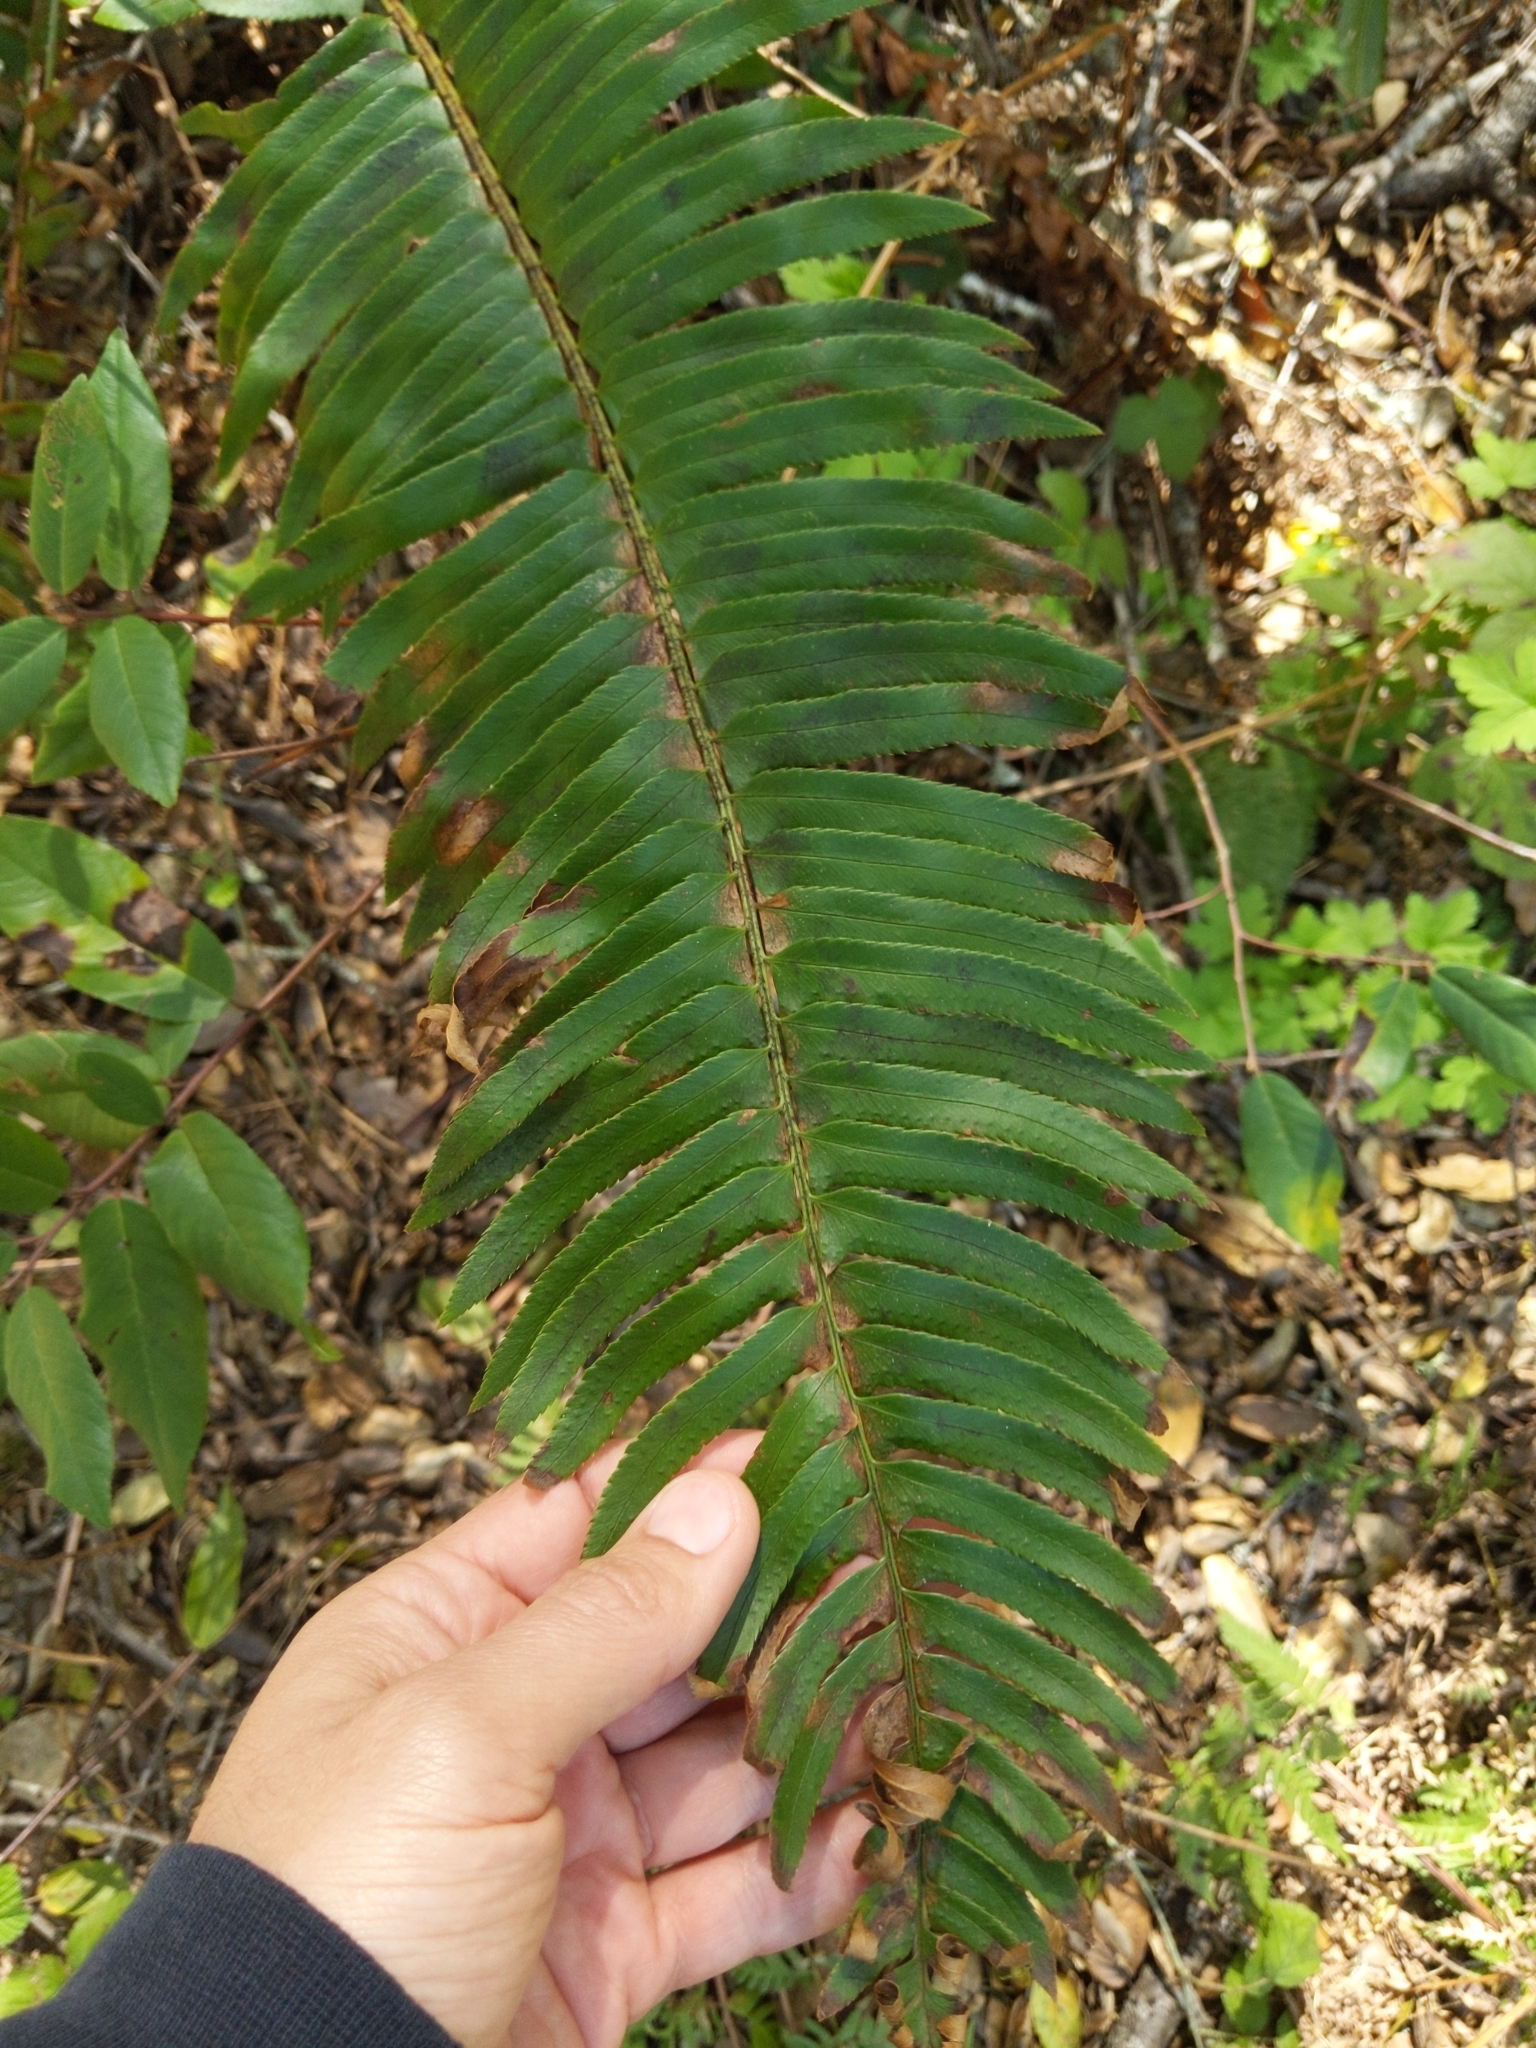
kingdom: Plantae
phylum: Tracheophyta
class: Polypodiopsida
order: Polypodiales
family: Dryopteridaceae
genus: Polystichum
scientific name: Polystichum munitum
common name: Western sword-fern
